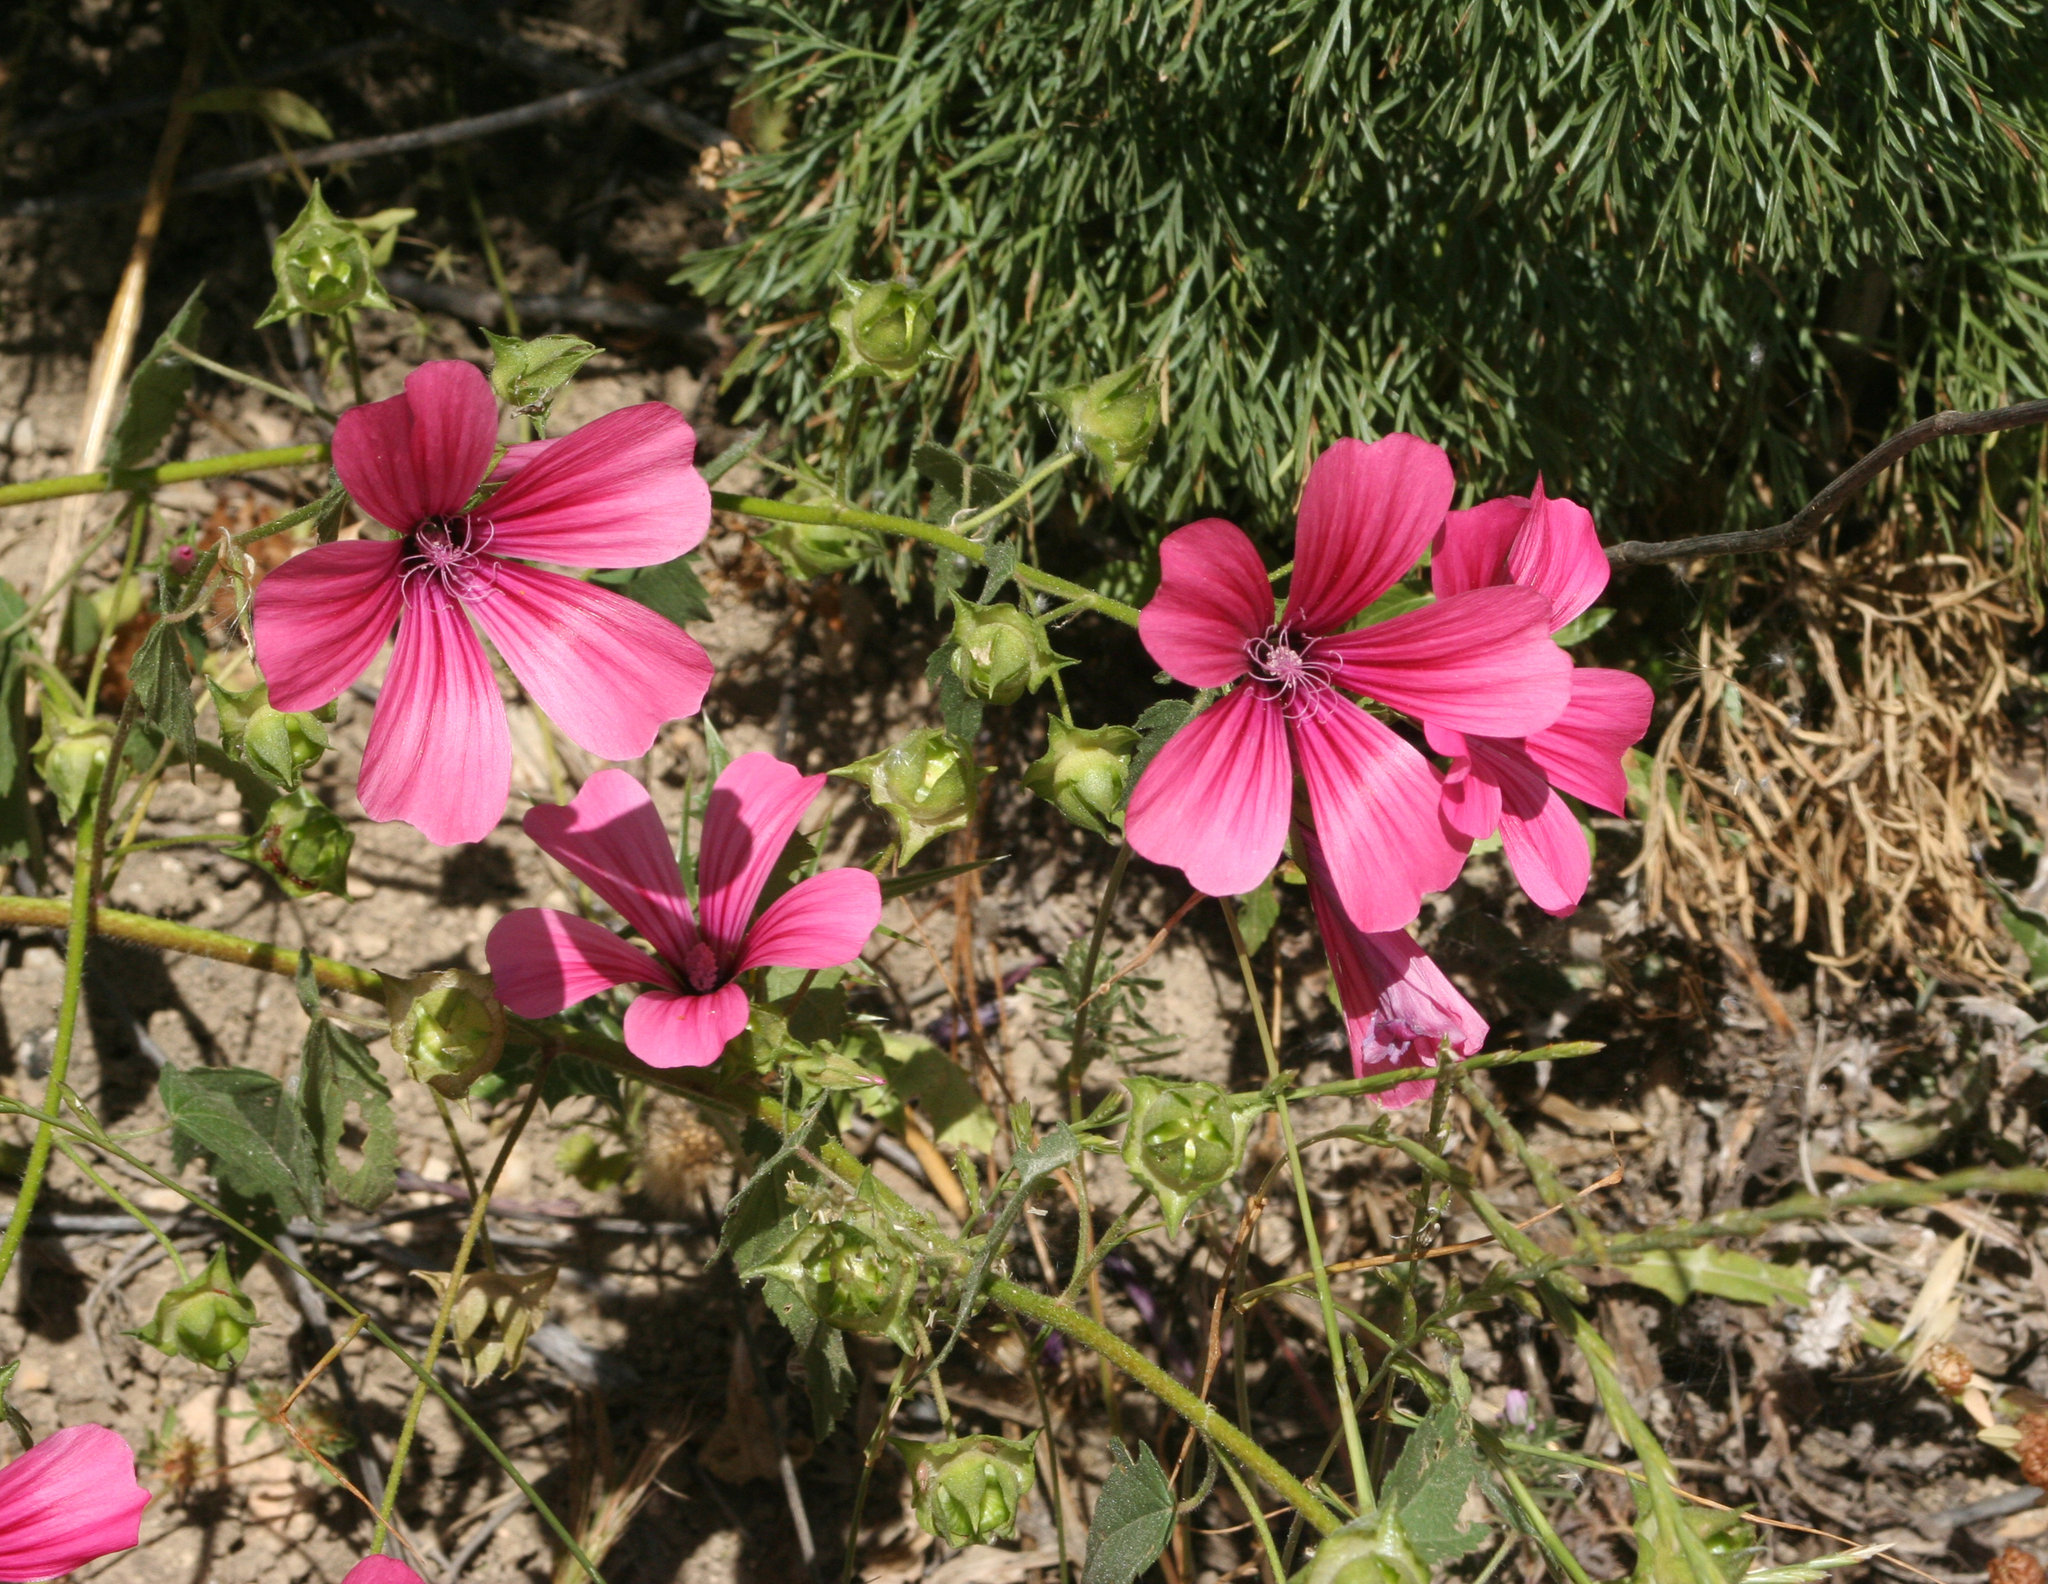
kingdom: Plantae
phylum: Tracheophyta
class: Magnoliopsida
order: Malvales
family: Malvaceae
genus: Malva
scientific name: Malva trimestris
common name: Royal mallow
